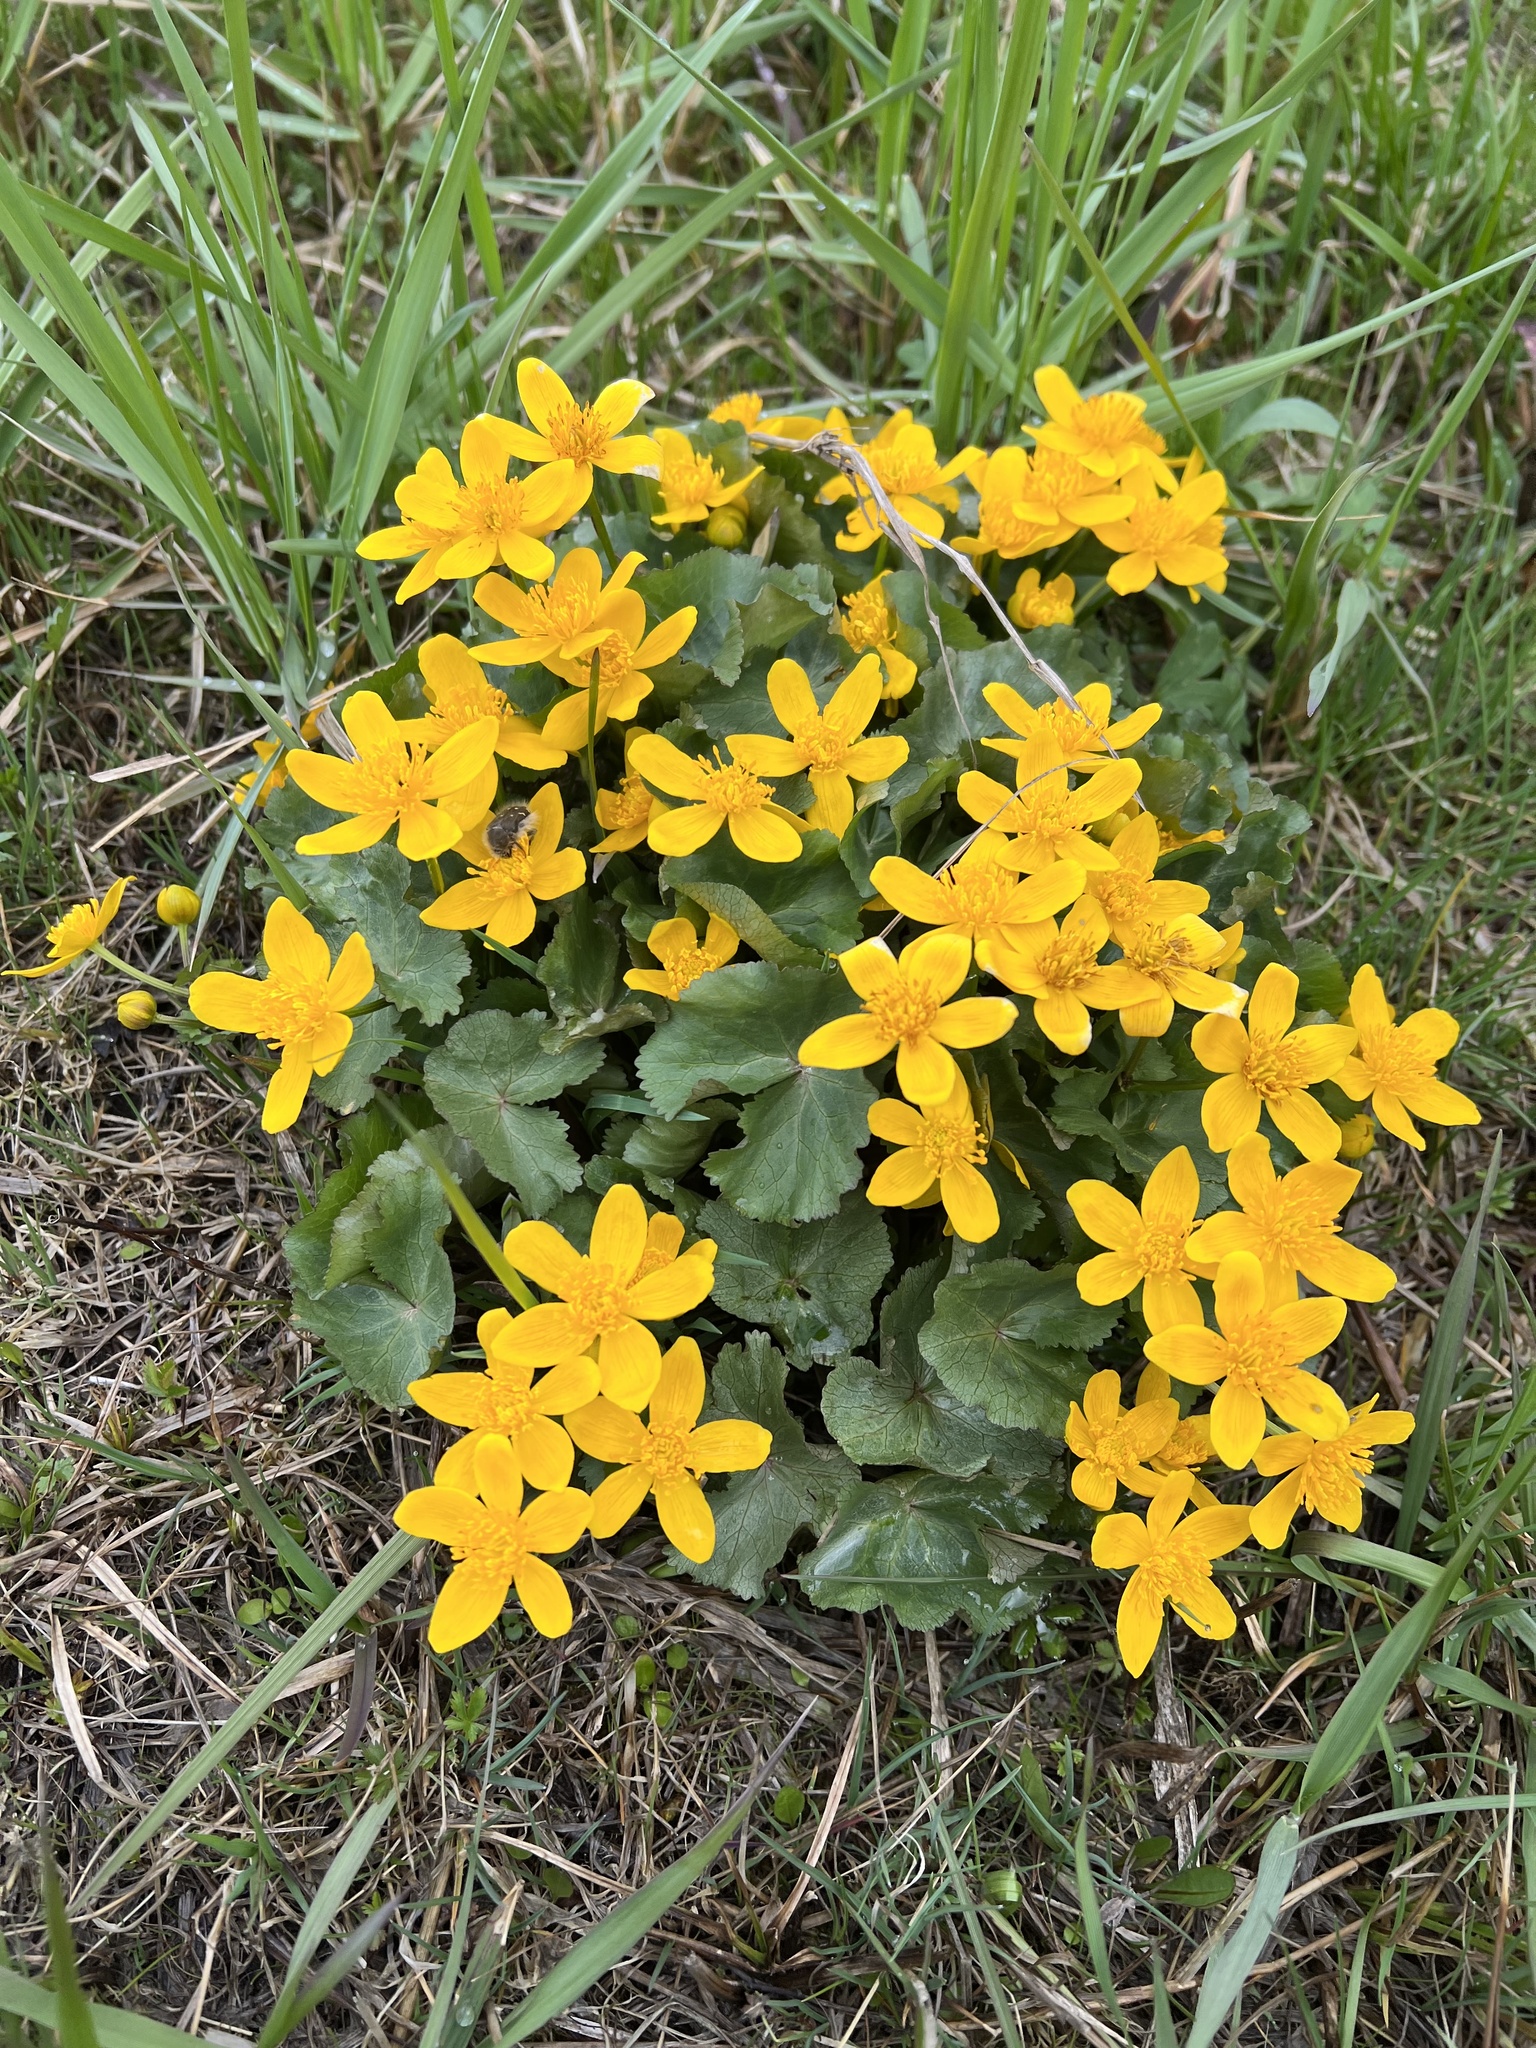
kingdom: Plantae
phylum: Tracheophyta
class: Magnoliopsida
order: Ranunculales
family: Ranunculaceae
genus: Caltha
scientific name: Caltha palustris
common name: Marsh marigold
